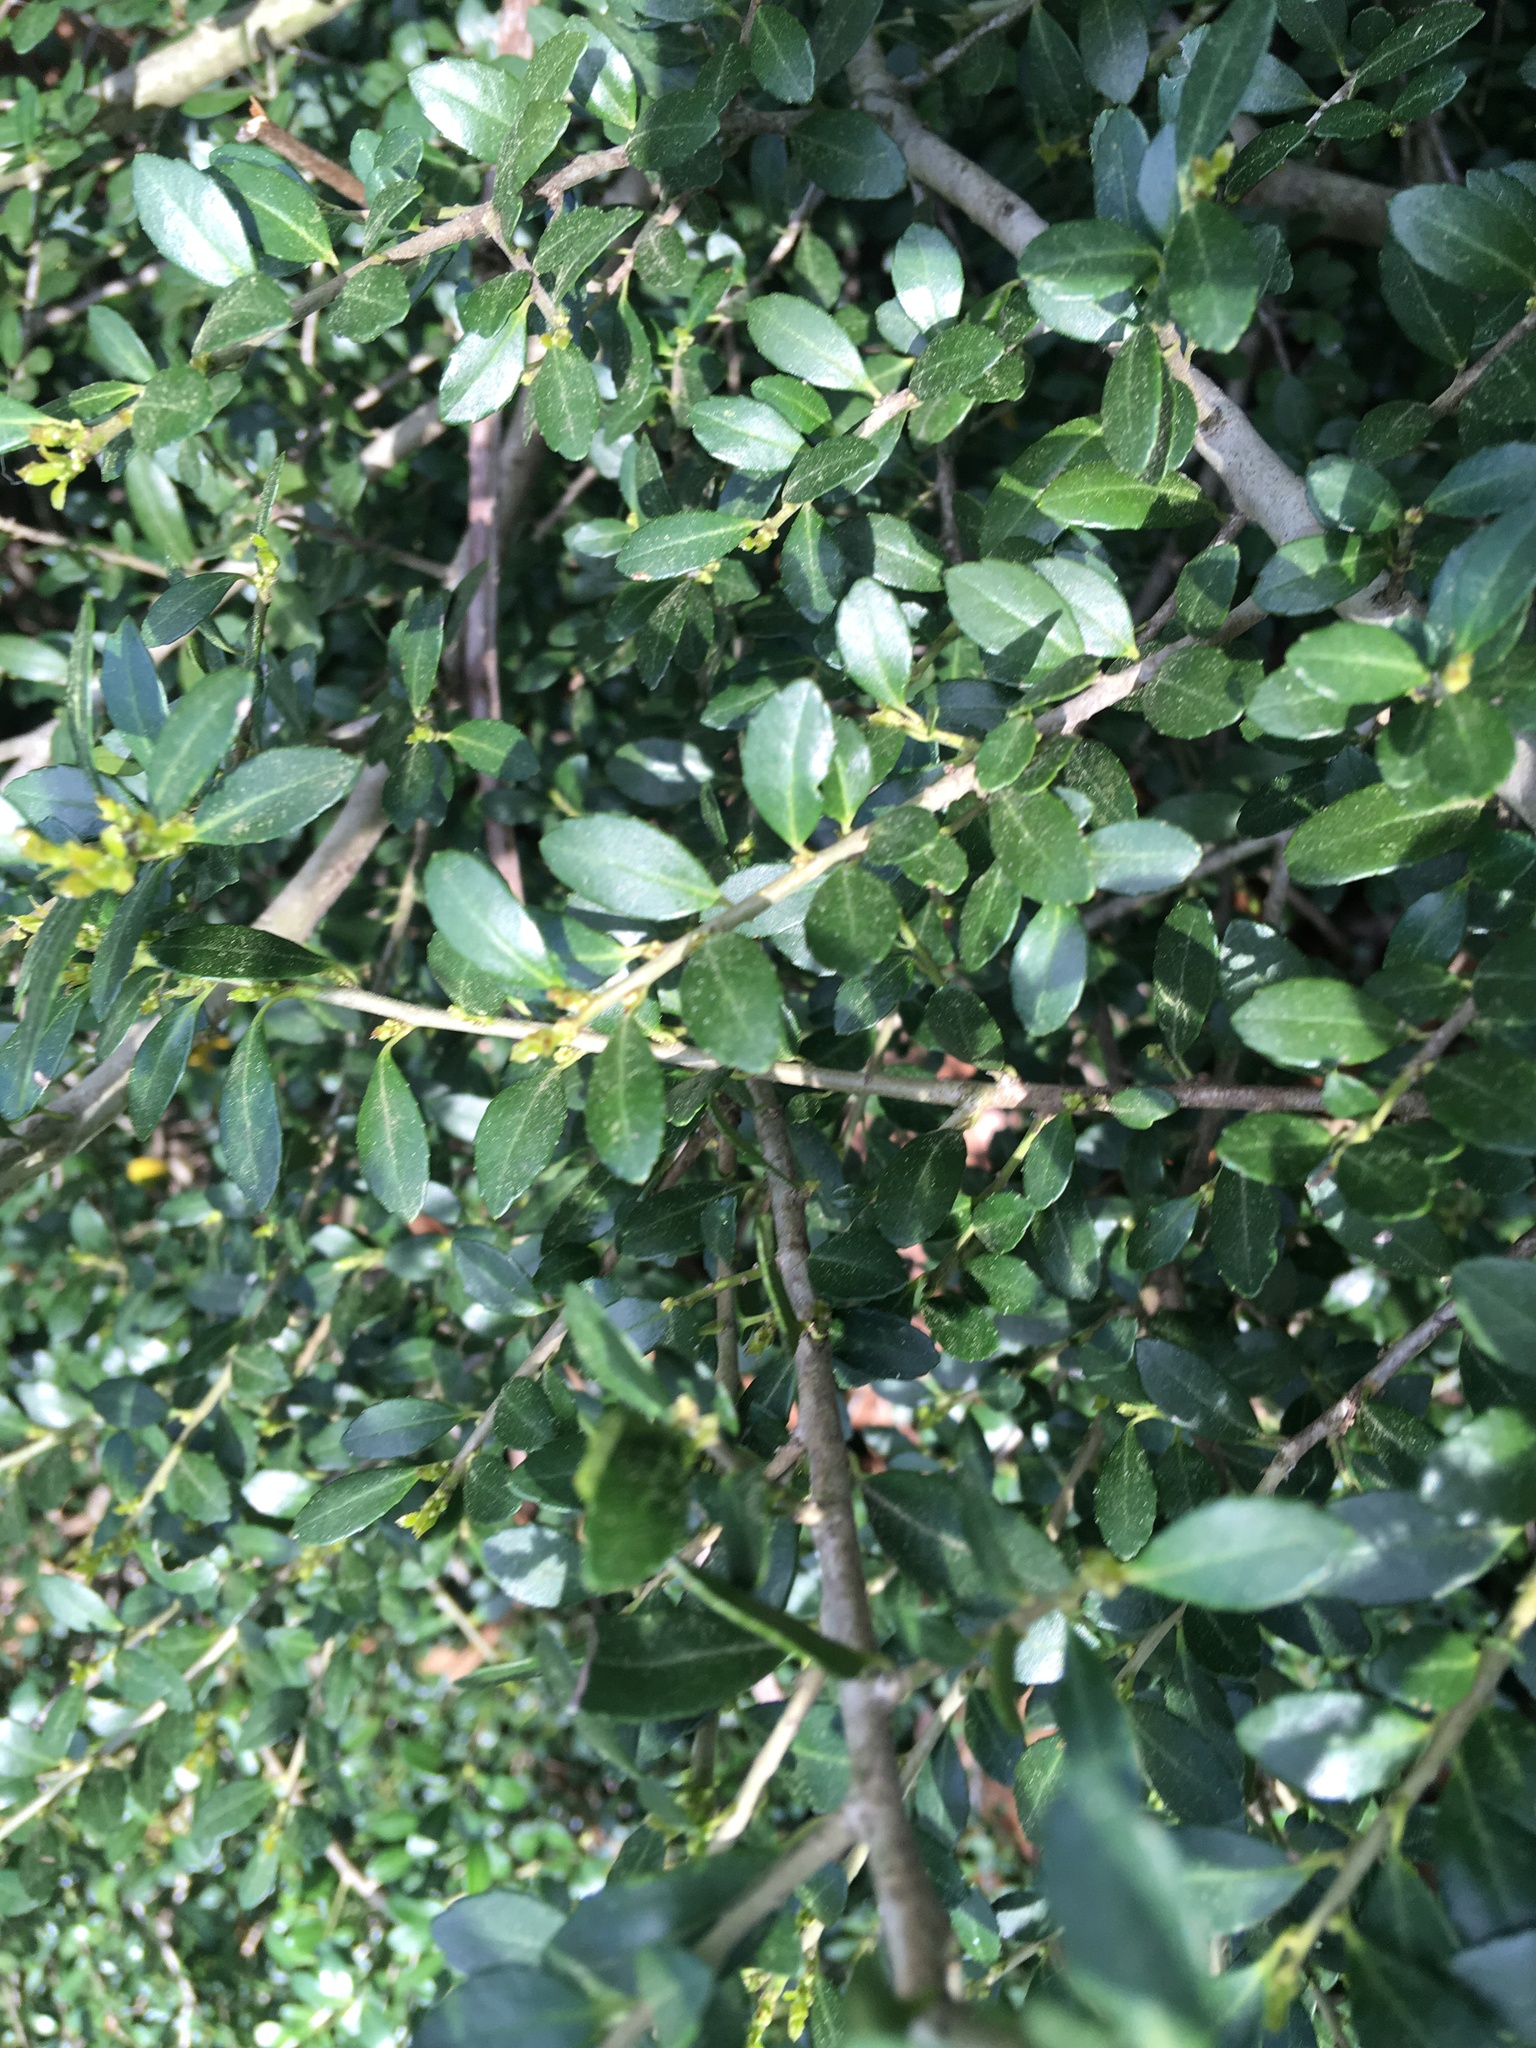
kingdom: Plantae
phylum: Tracheophyta
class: Magnoliopsida
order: Aquifoliales
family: Aquifoliaceae
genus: Ilex
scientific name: Ilex crenata
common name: Japanese holly
